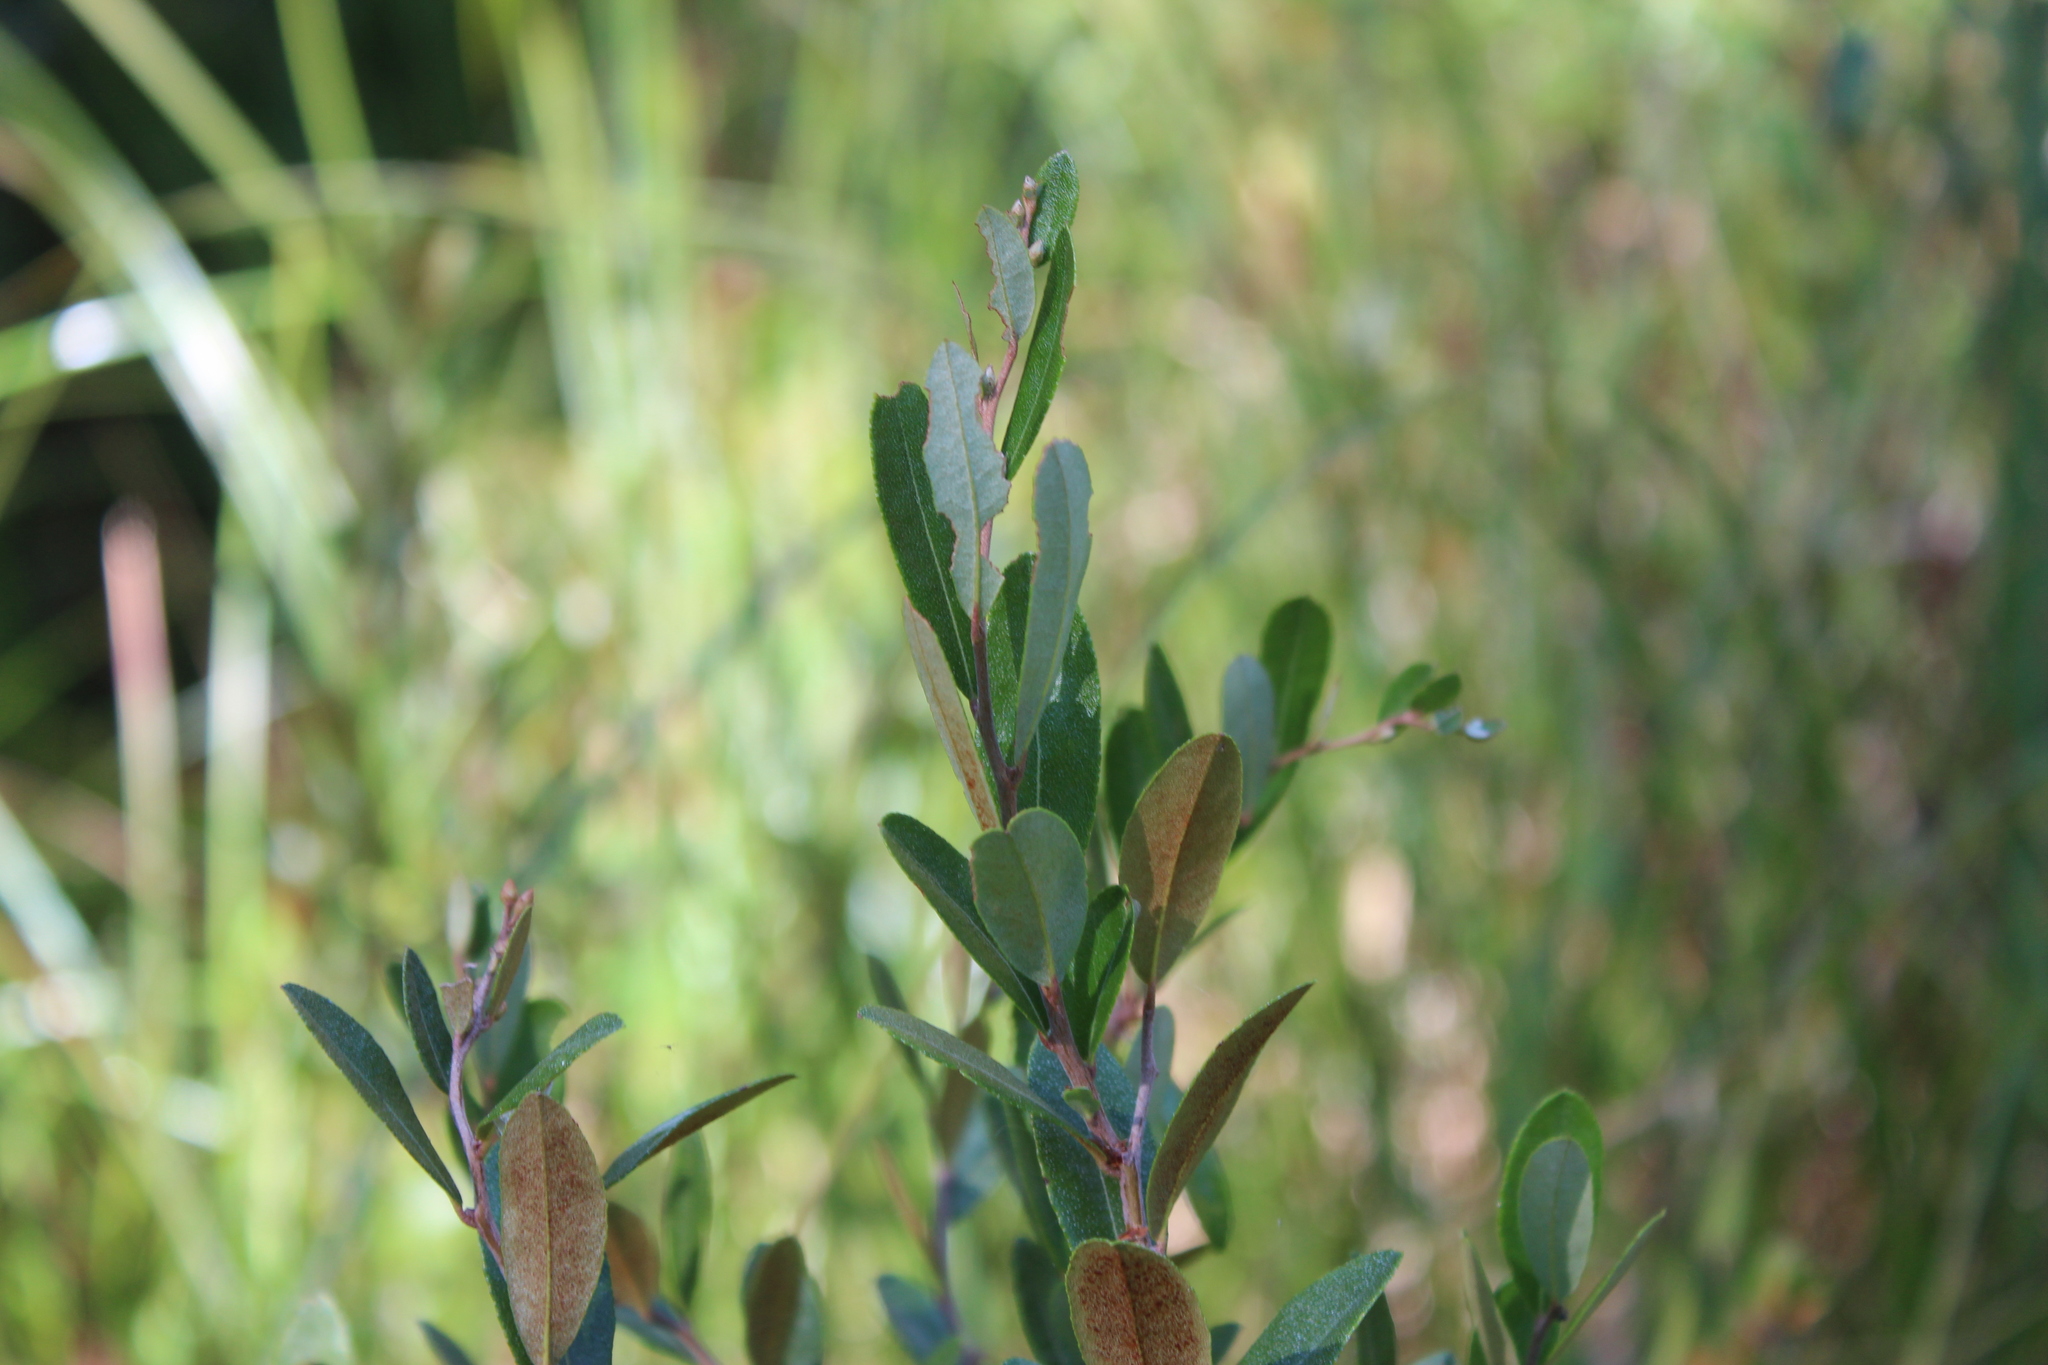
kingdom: Plantae
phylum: Tracheophyta
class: Magnoliopsida
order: Ericales
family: Ericaceae
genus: Chamaedaphne
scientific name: Chamaedaphne calyculata
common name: Leatherleaf
